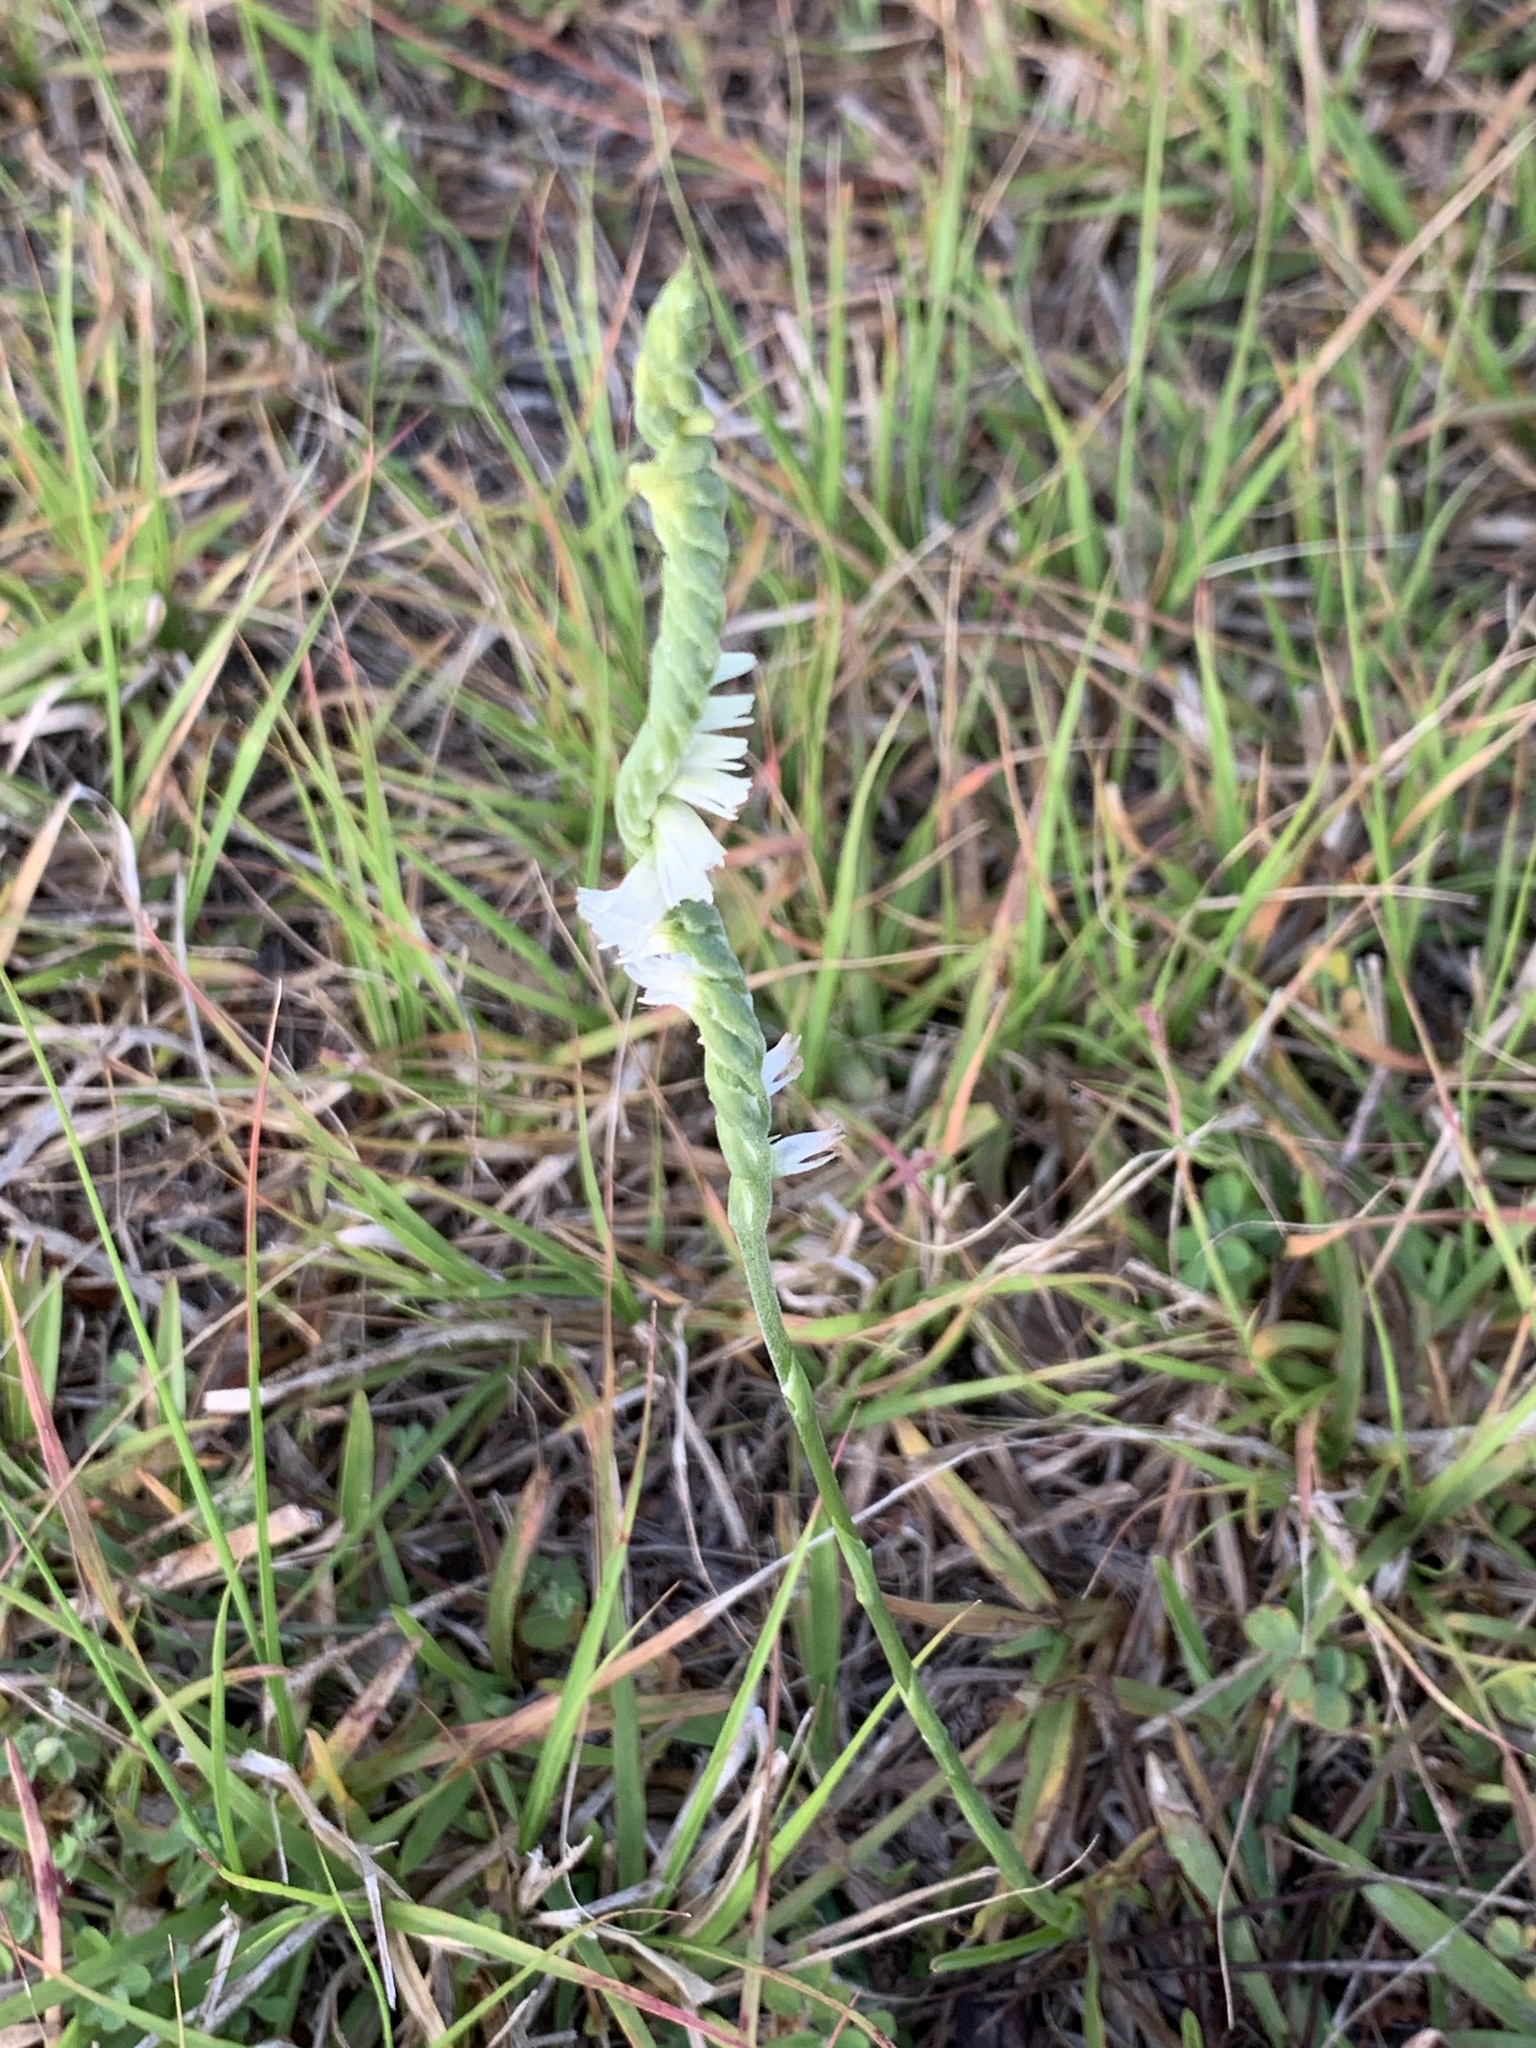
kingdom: Plantae
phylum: Tracheophyta
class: Liliopsida
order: Asparagales
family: Orchidaceae
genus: Spiranthes
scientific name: Spiranthes vernalis
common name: Spring ladies'-tresses
